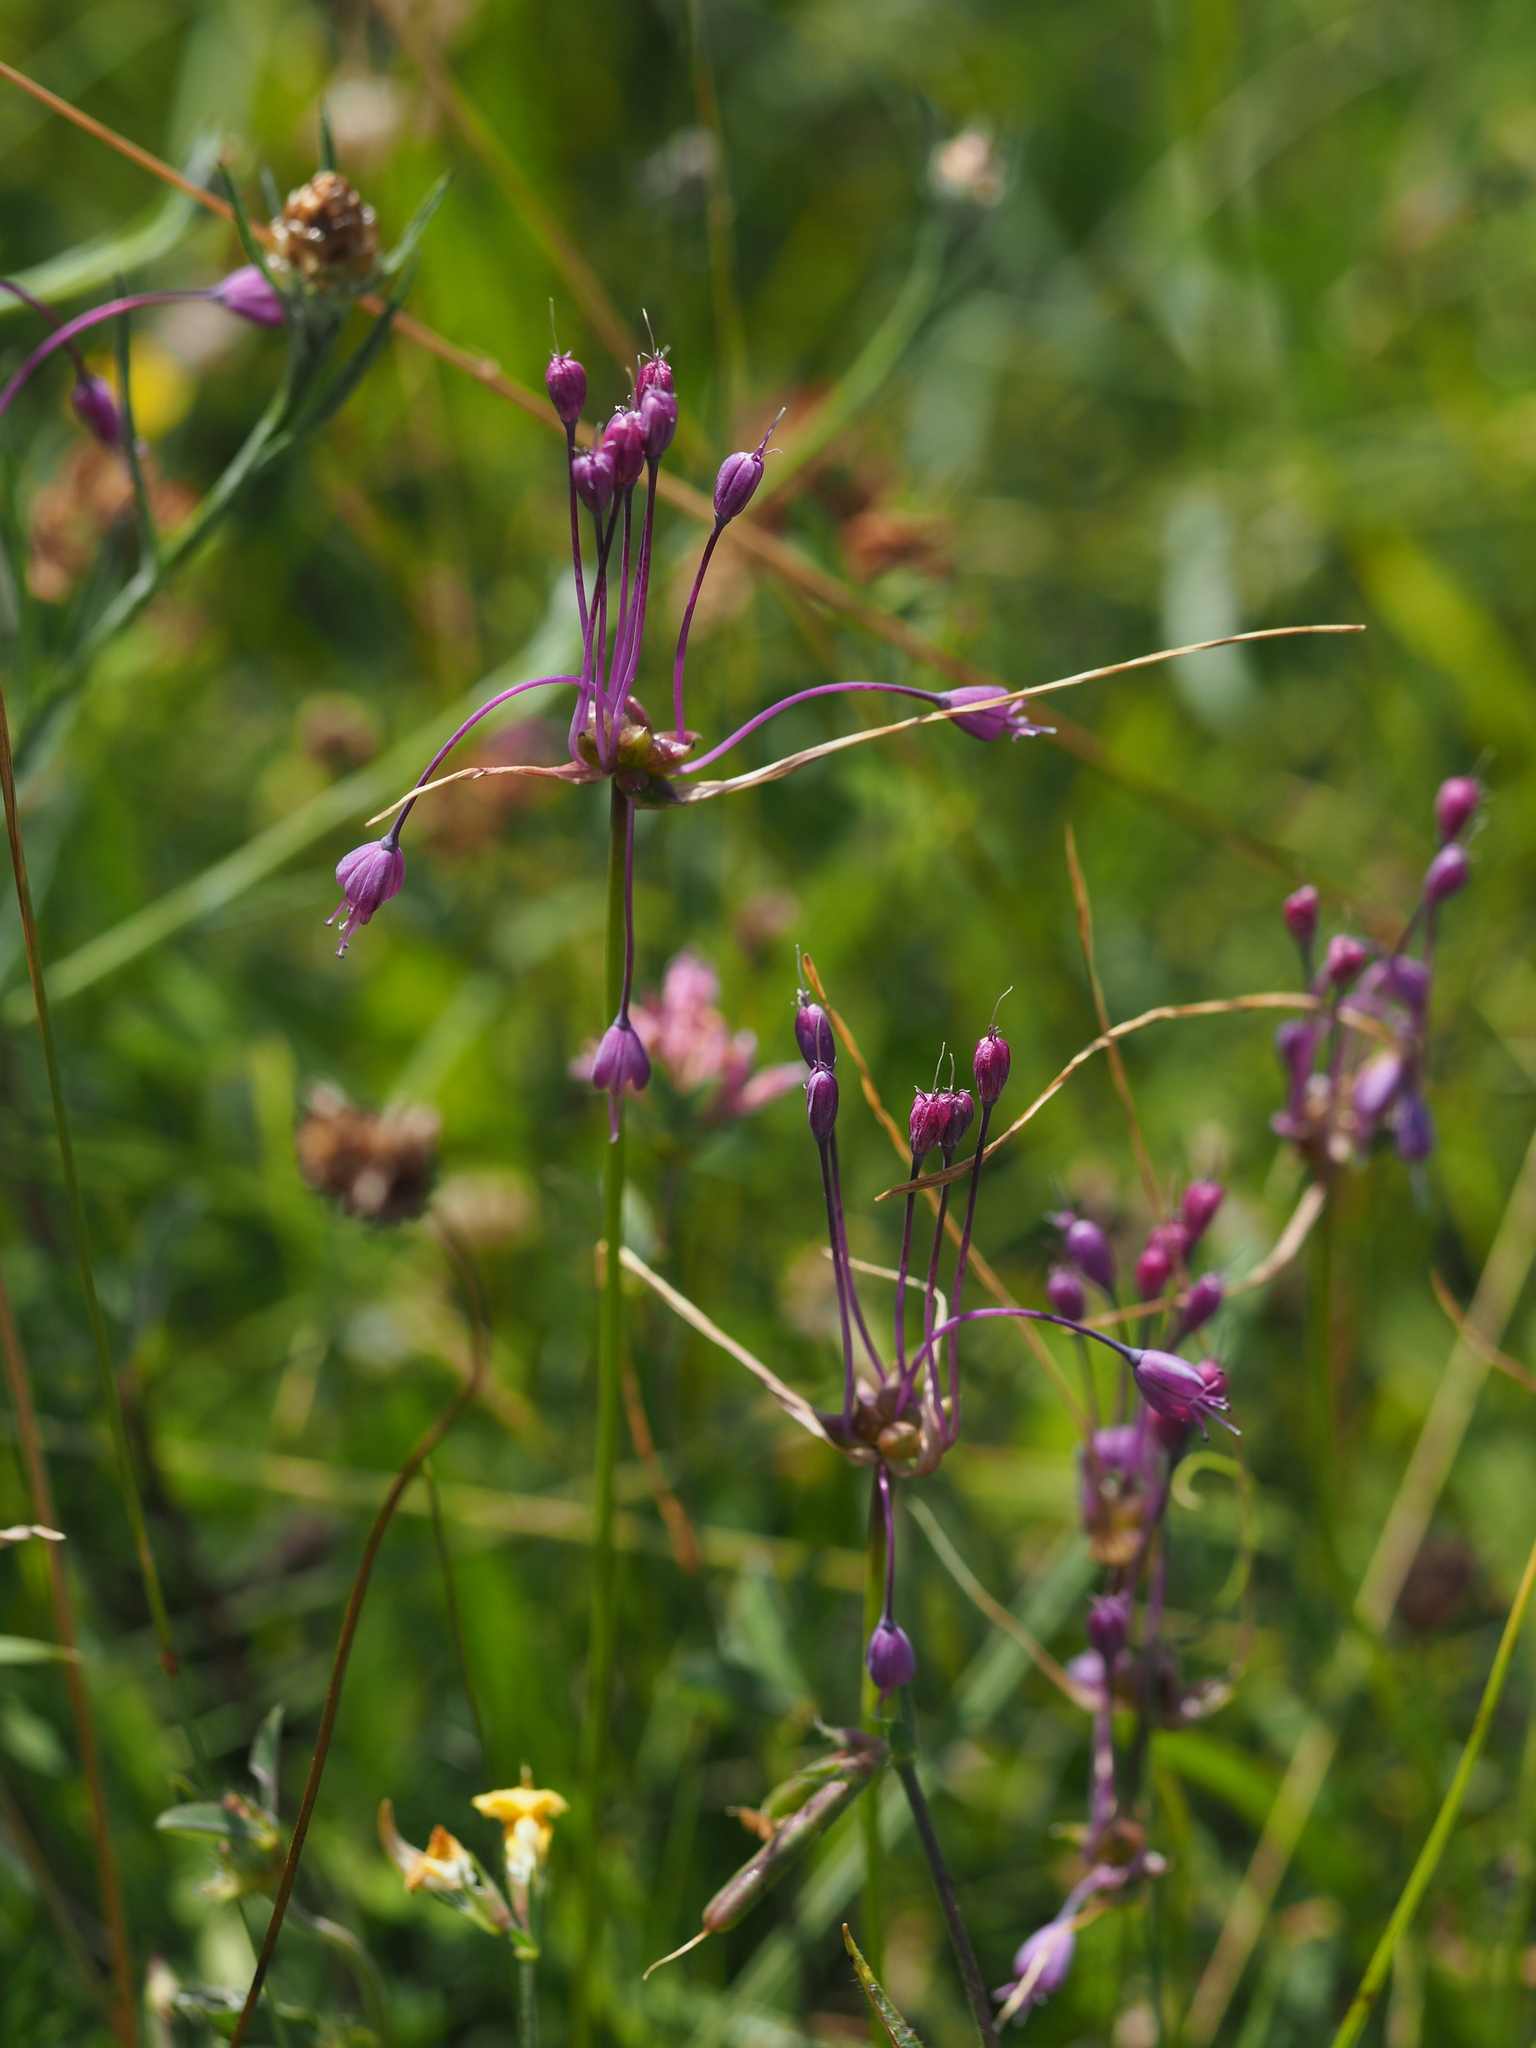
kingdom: Plantae
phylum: Tracheophyta
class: Liliopsida
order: Asparagales
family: Amaryllidaceae
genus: Allium
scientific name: Allium carinatum
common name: Keeled garlic
